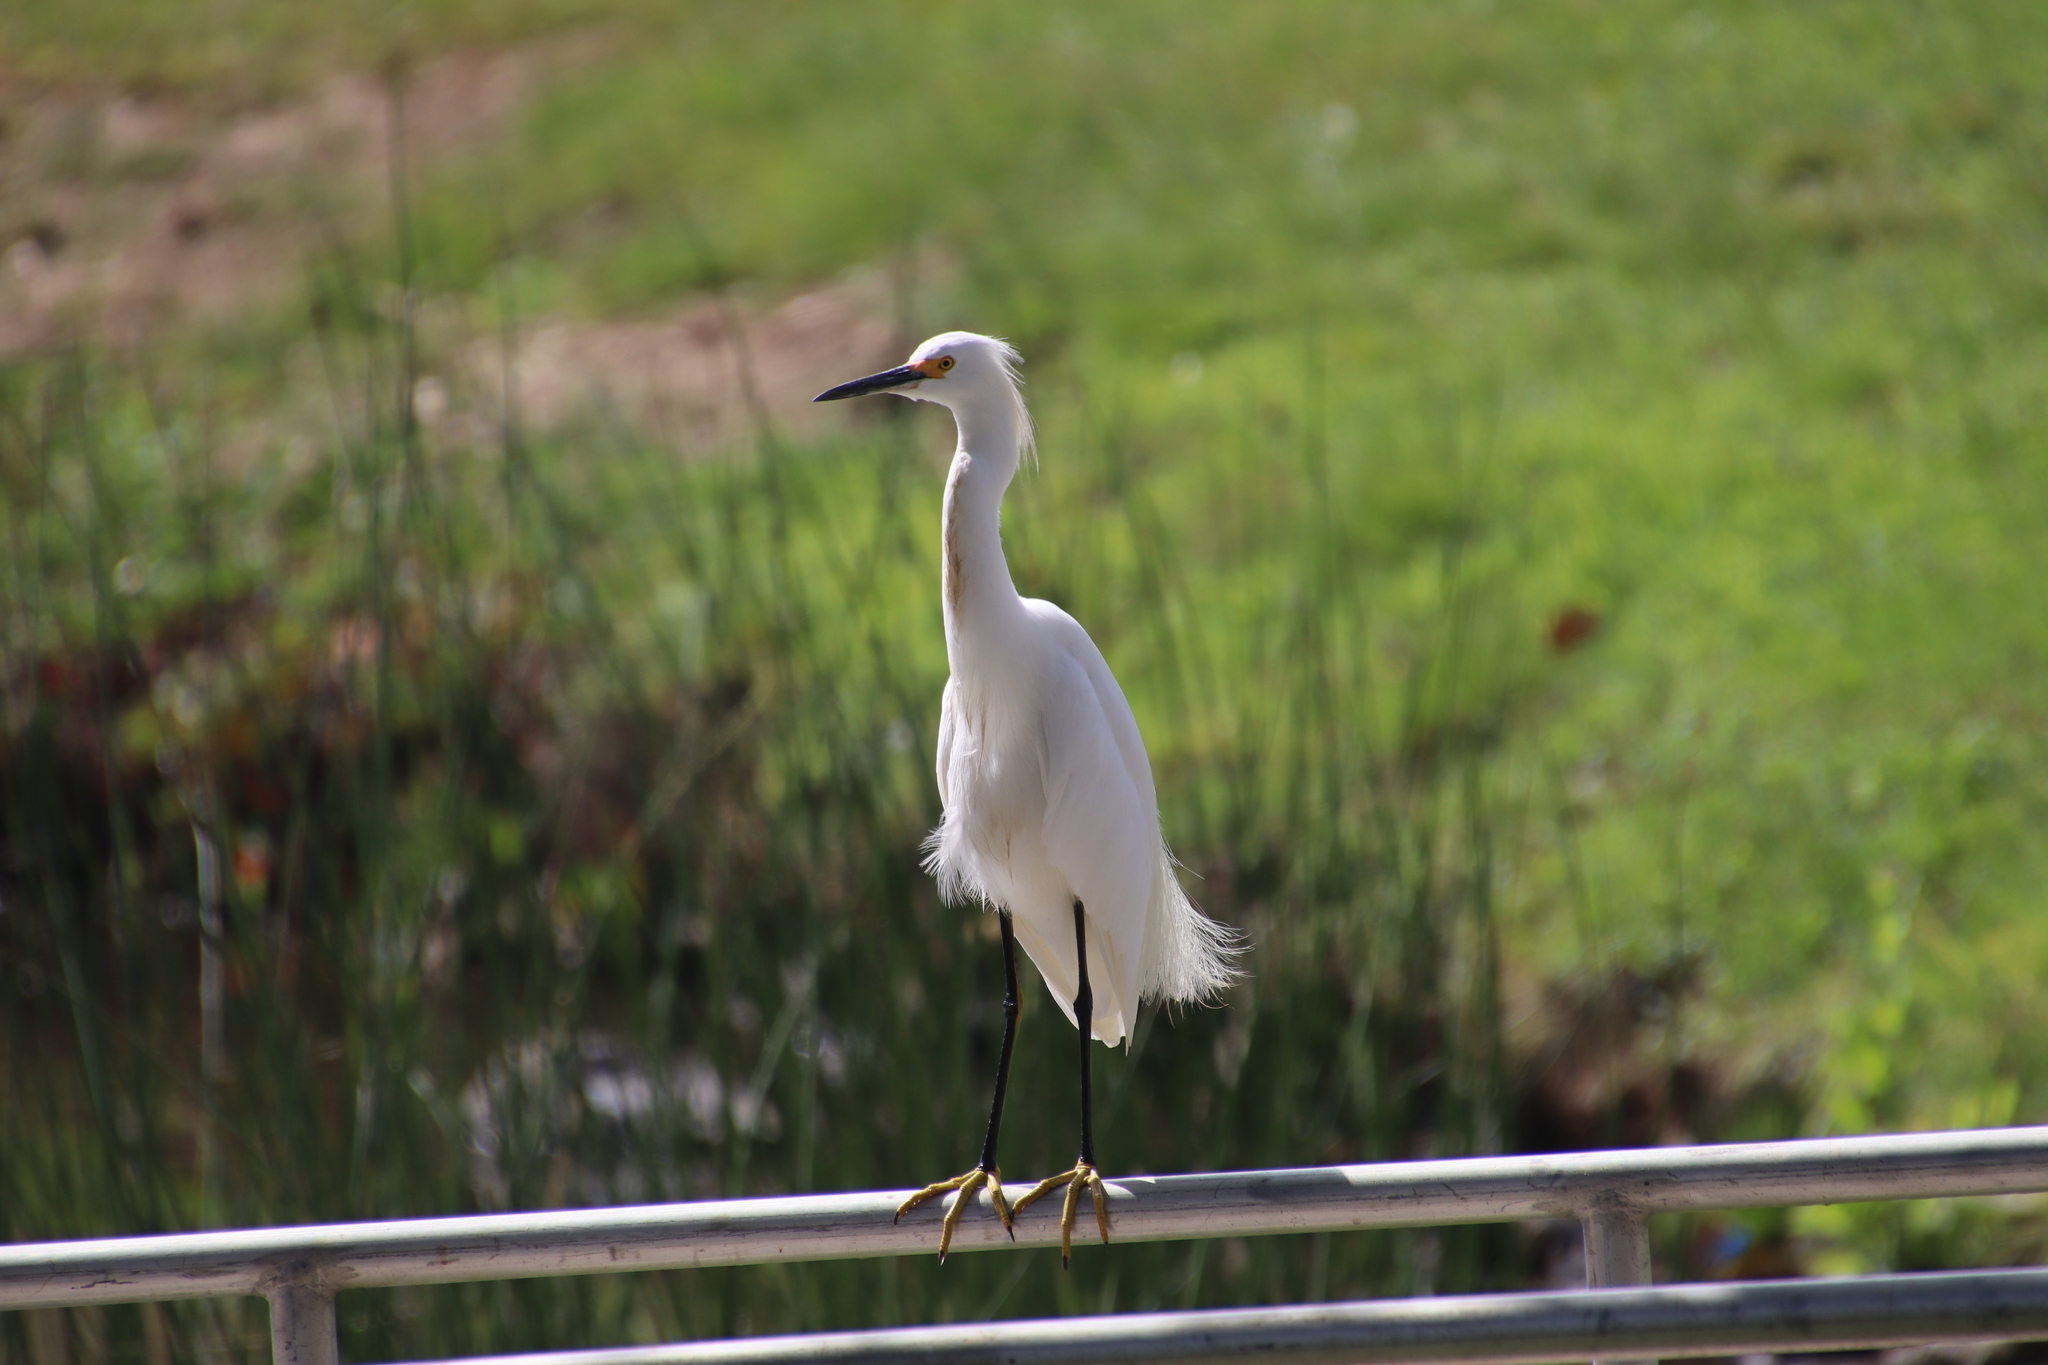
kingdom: Animalia
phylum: Chordata
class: Aves
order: Pelecaniformes
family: Ardeidae
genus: Egretta
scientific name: Egretta thula
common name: Snowy egret
